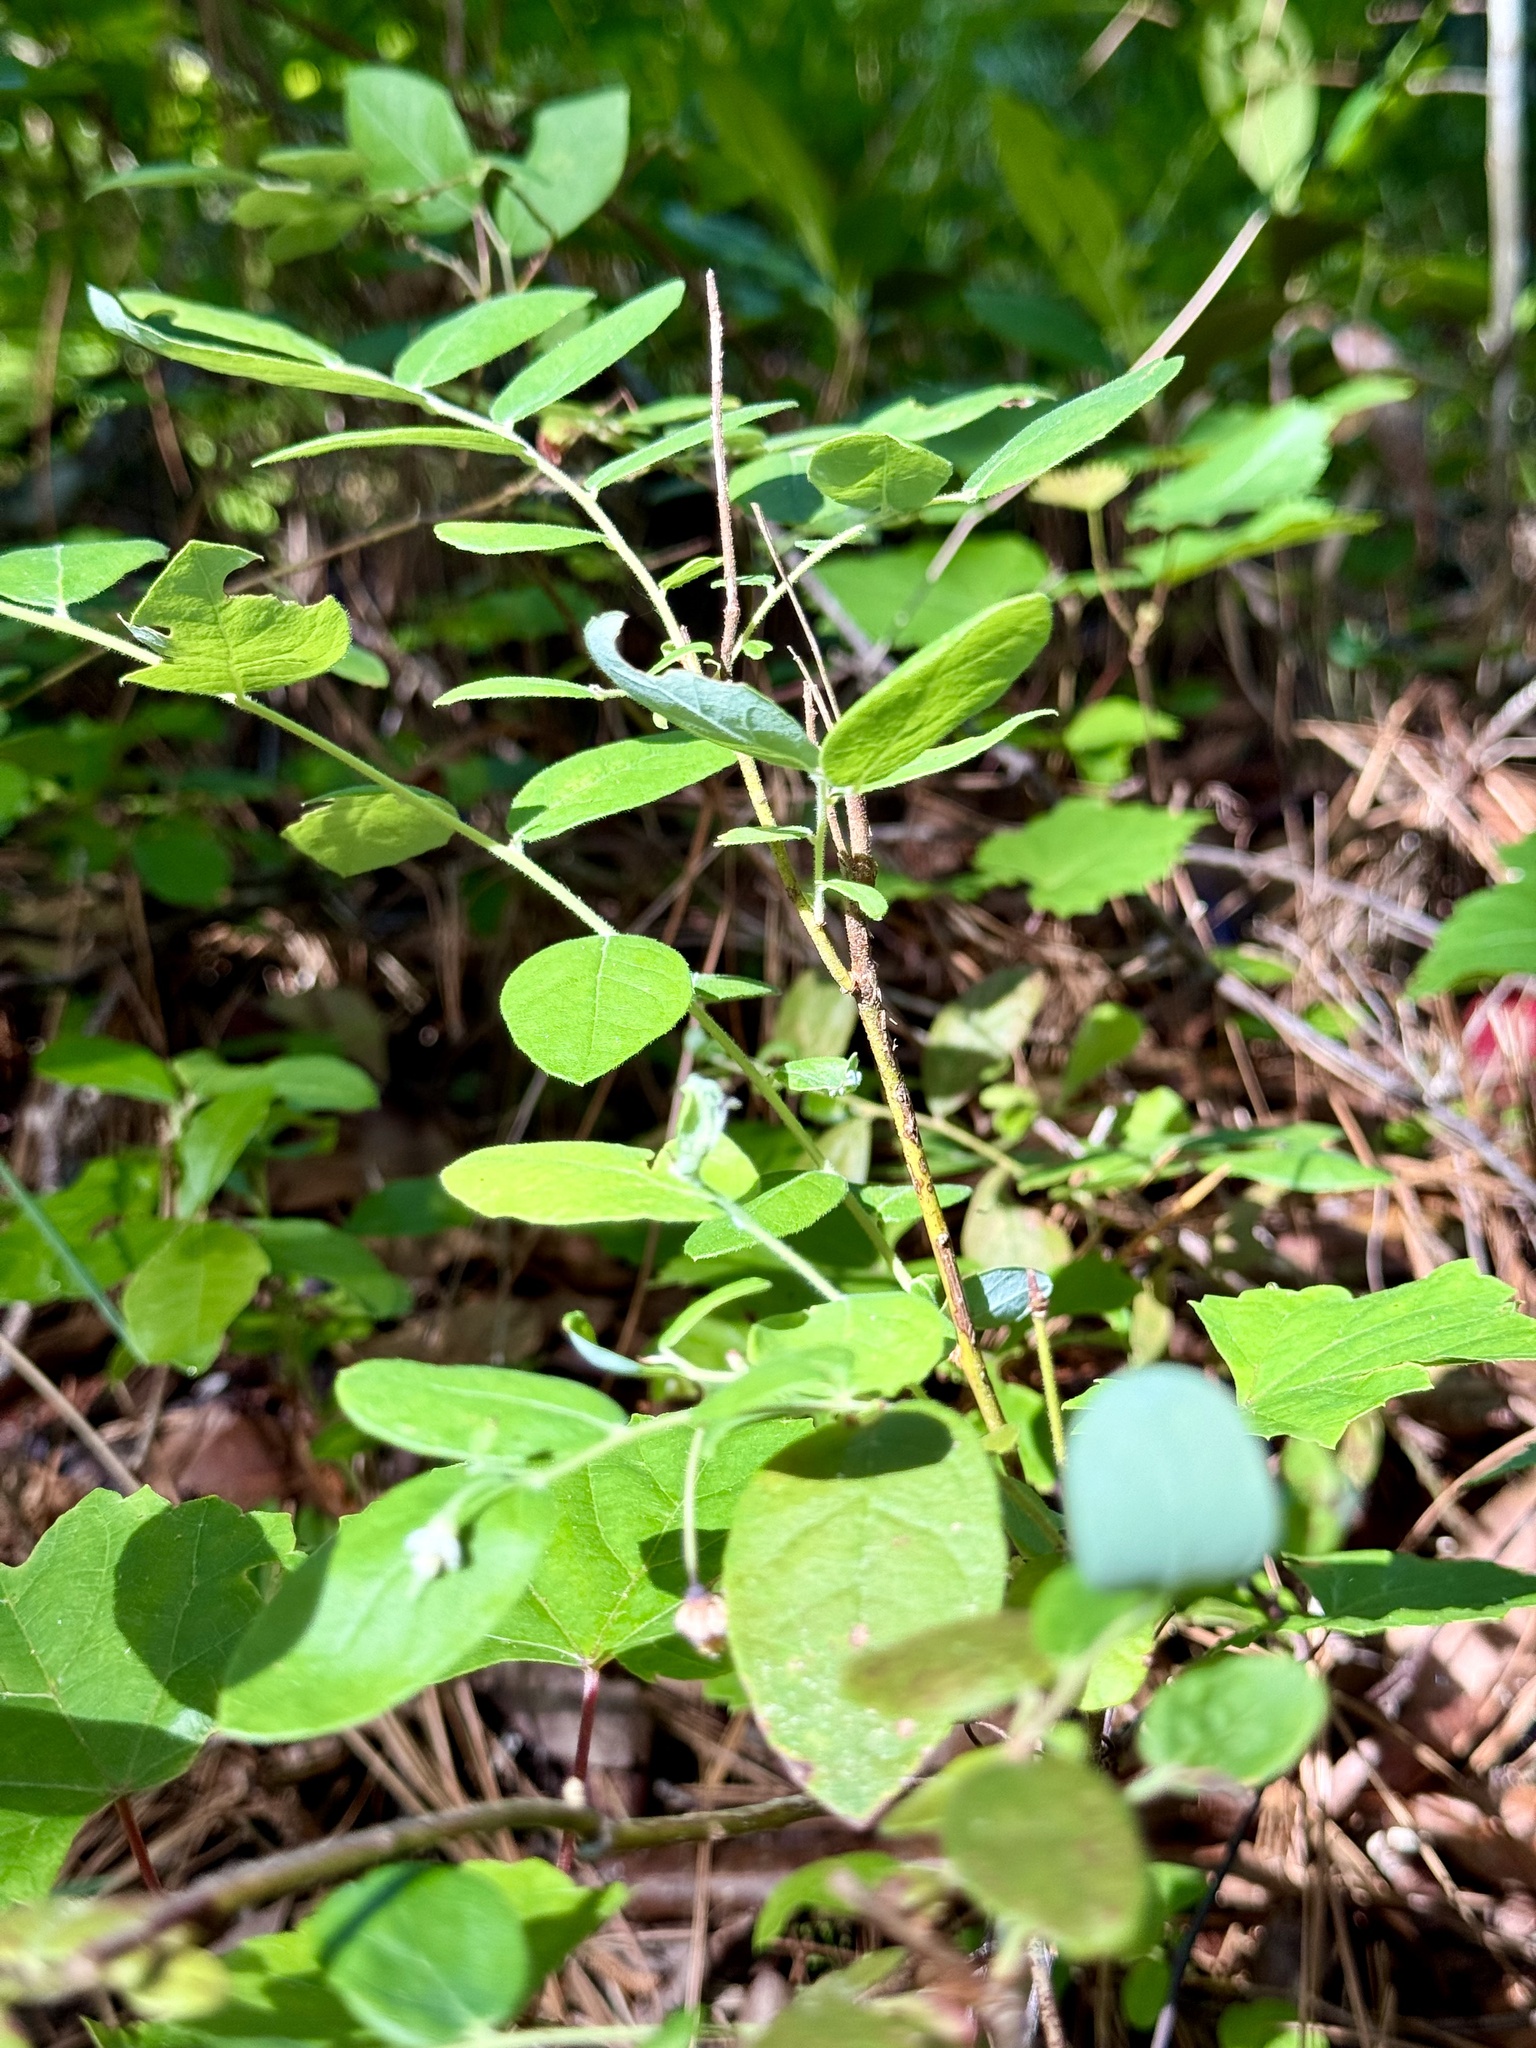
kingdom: Plantae
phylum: Tracheophyta
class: Magnoliopsida
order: Ericales
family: Ericaceae
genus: Vaccinium
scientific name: Vaccinium stamineum
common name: Deerberry
